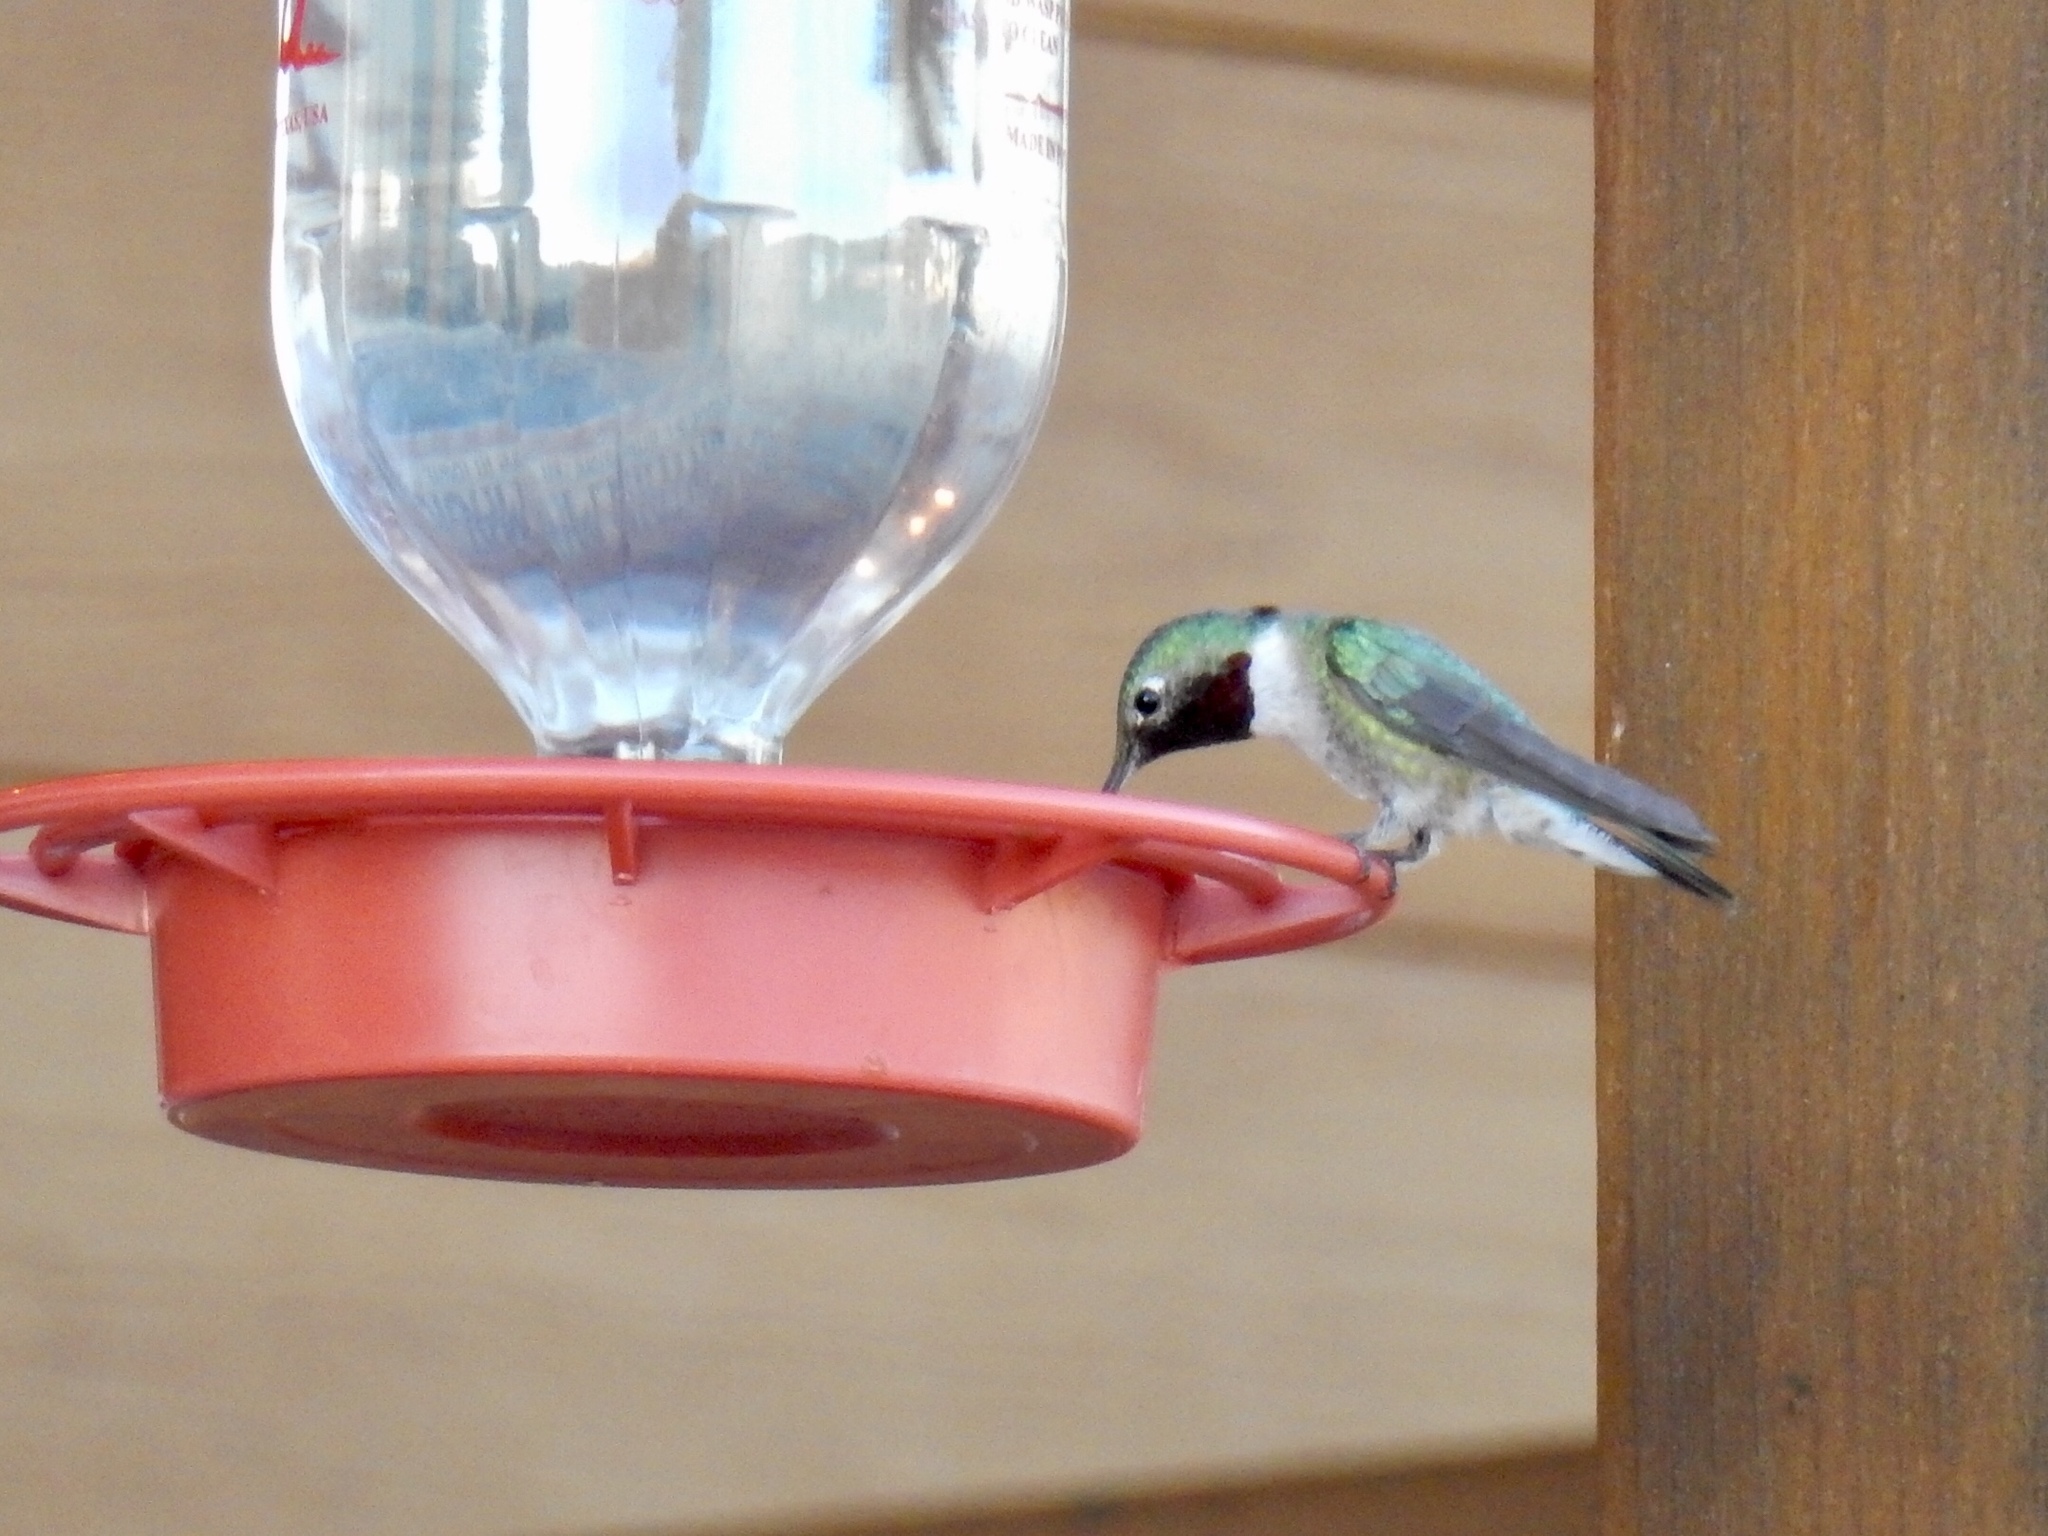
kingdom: Animalia
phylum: Chordata
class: Aves
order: Apodiformes
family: Trochilidae
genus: Selasphorus
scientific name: Selasphorus platycercus
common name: Broad-tailed hummingbird
